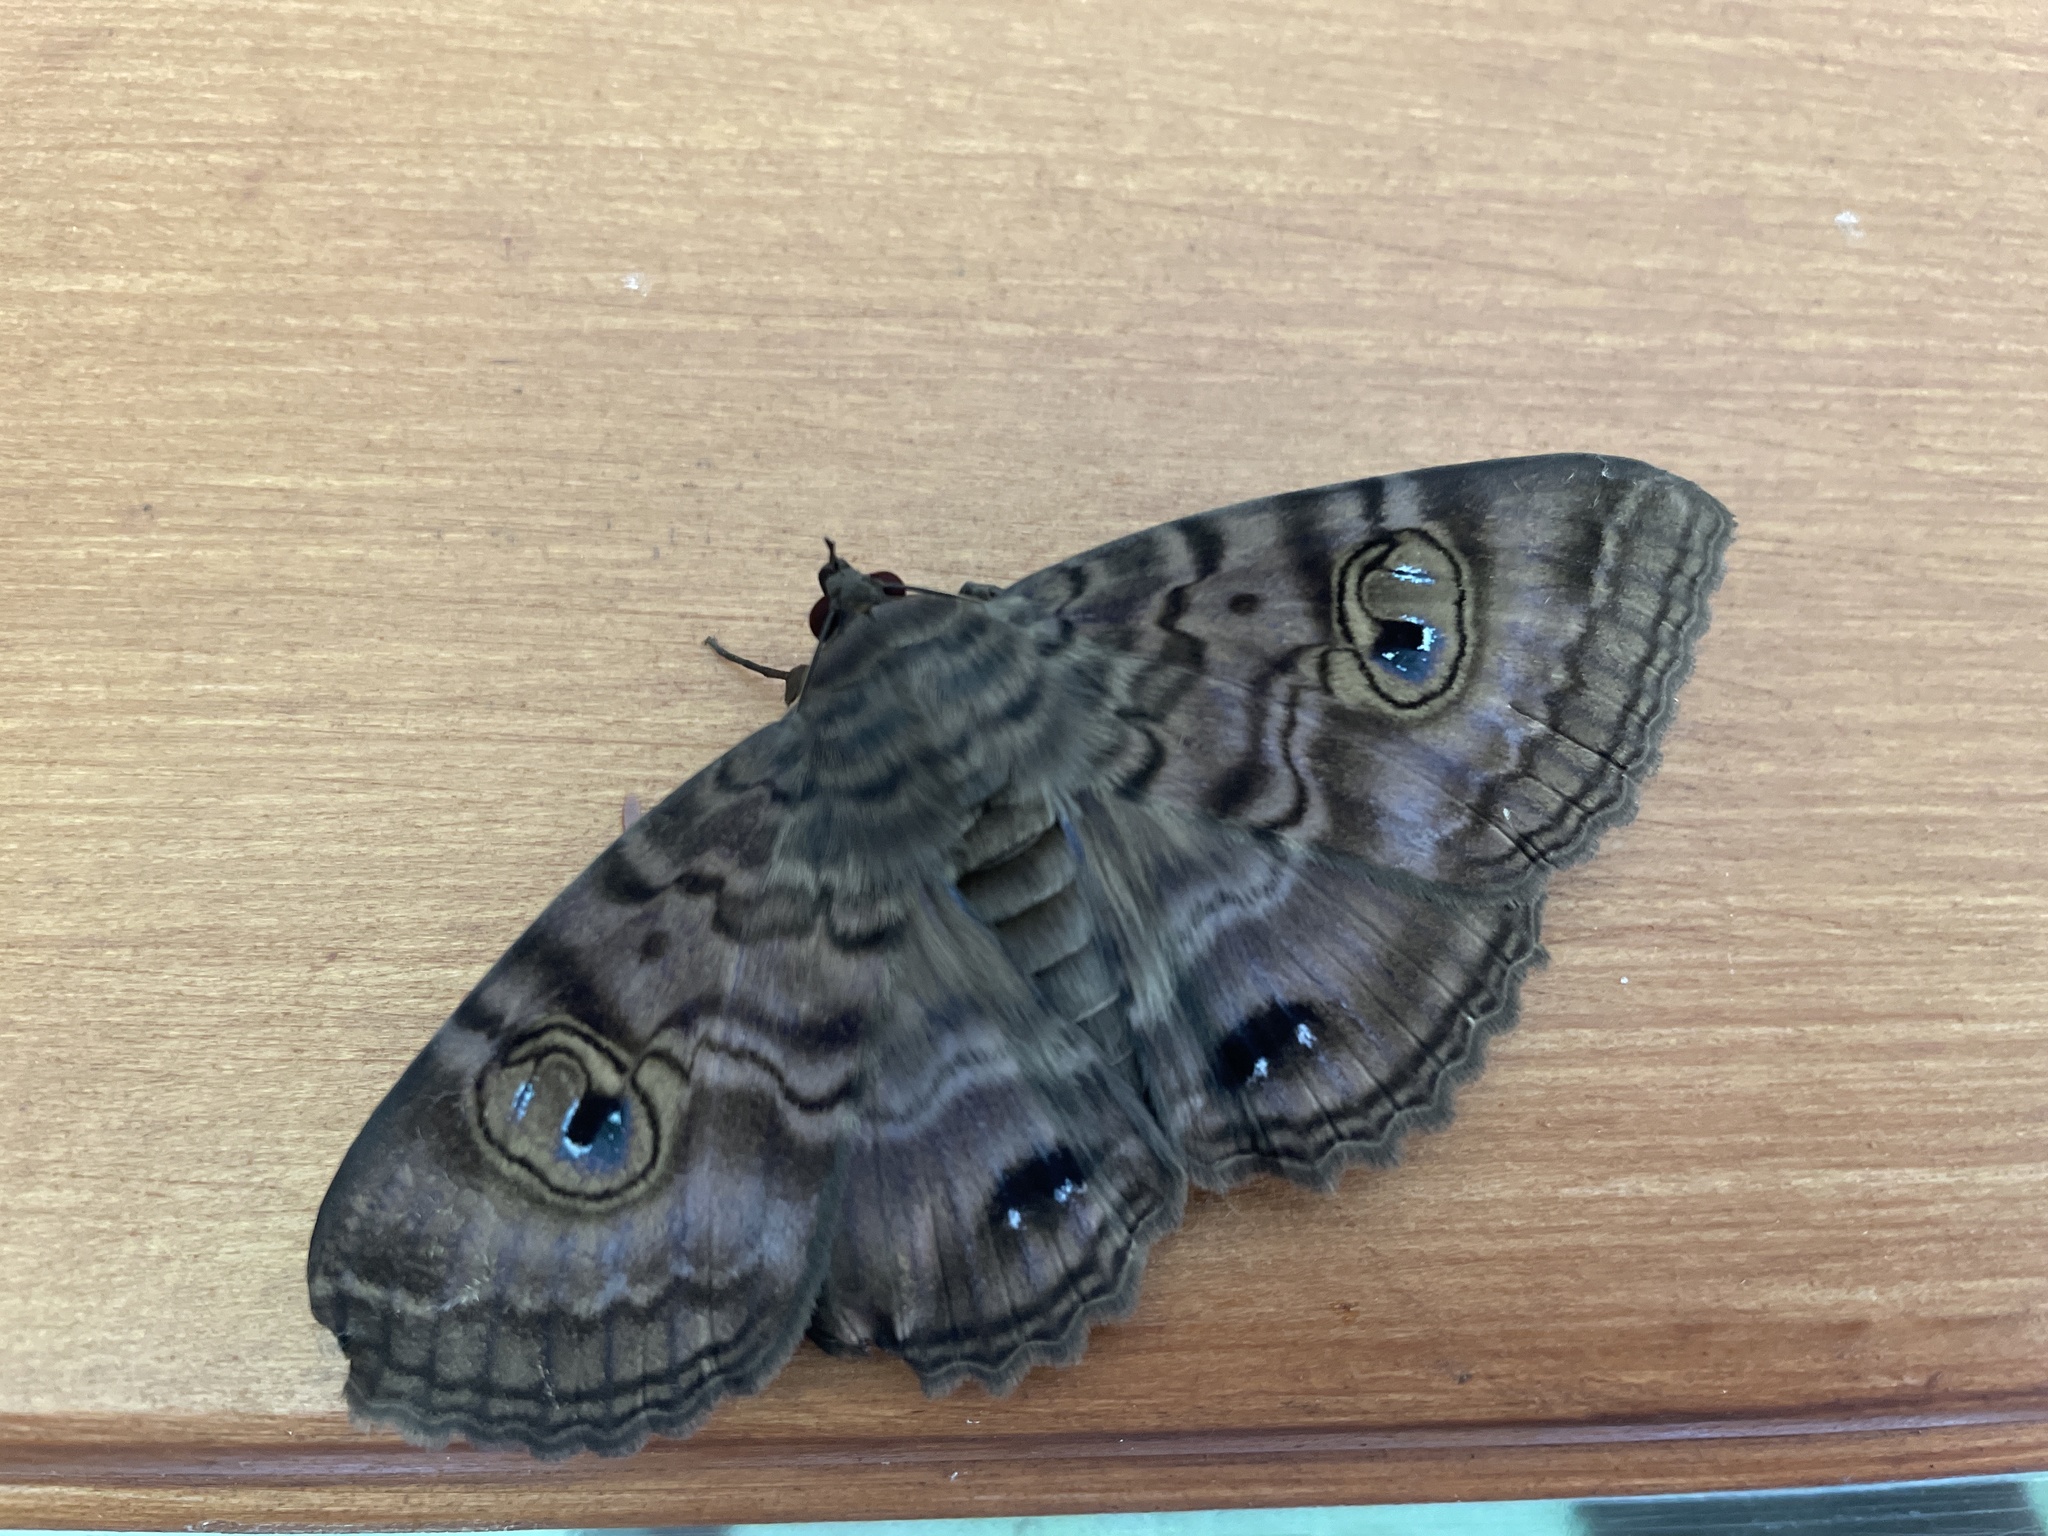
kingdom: Animalia
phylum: Arthropoda
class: Insecta
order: Lepidoptera
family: Erebidae
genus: Speiredonia
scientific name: Speiredonia spectans
